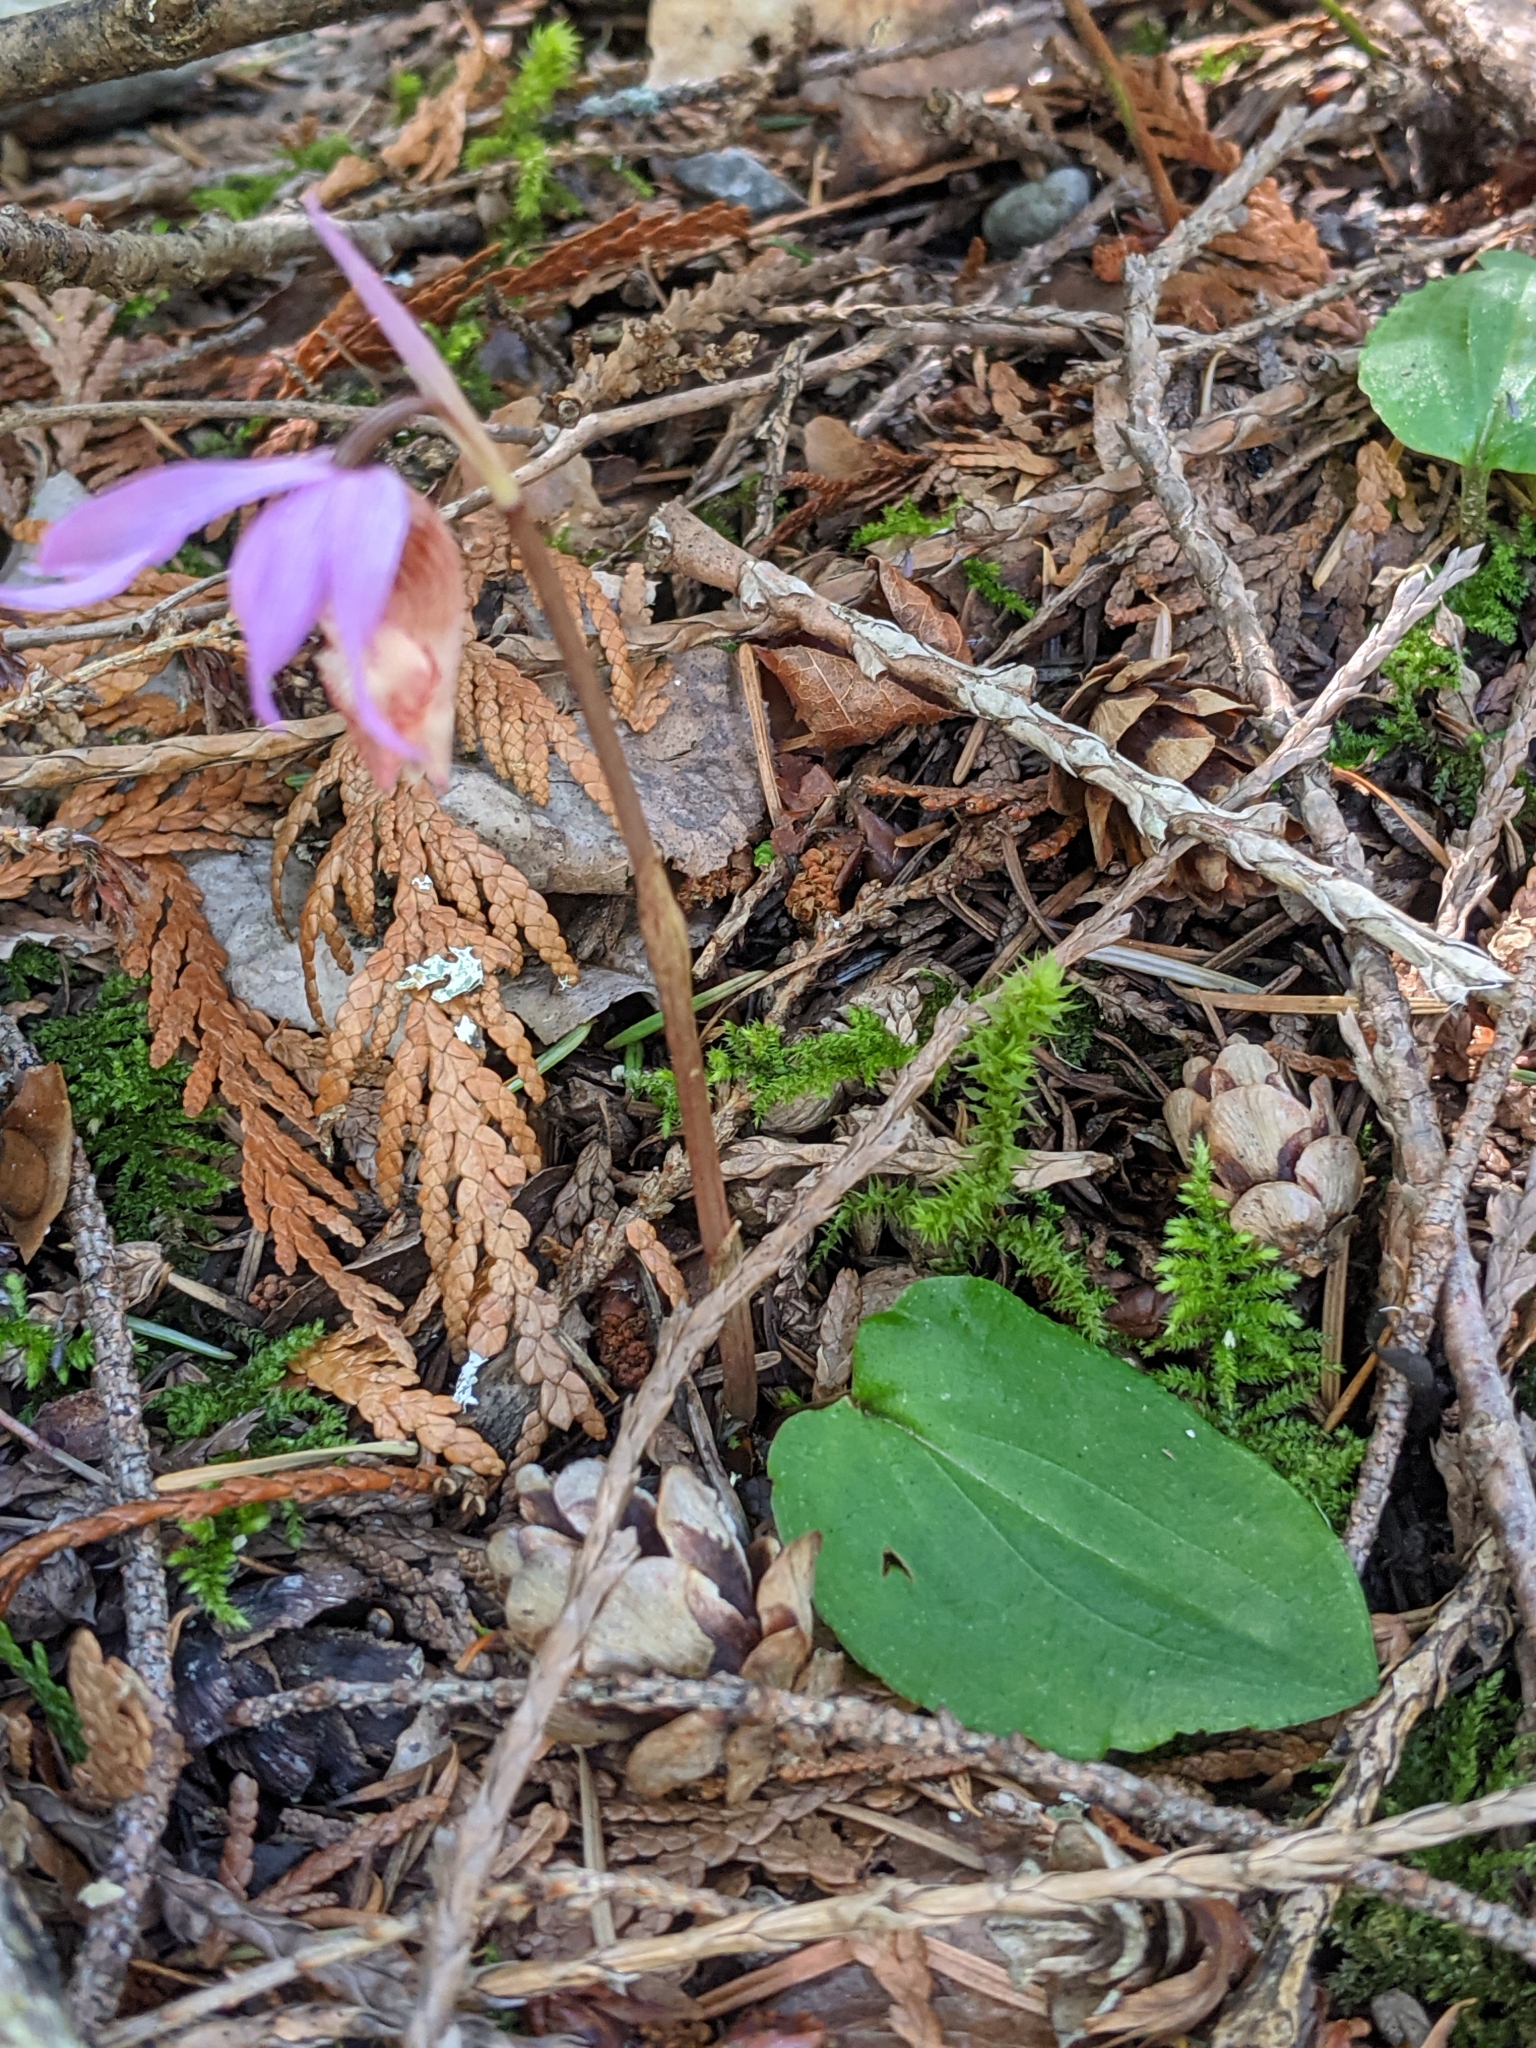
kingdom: Plantae
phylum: Tracheophyta
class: Liliopsida
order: Asparagales
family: Orchidaceae
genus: Calypso
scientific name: Calypso bulbosa
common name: Calypso
